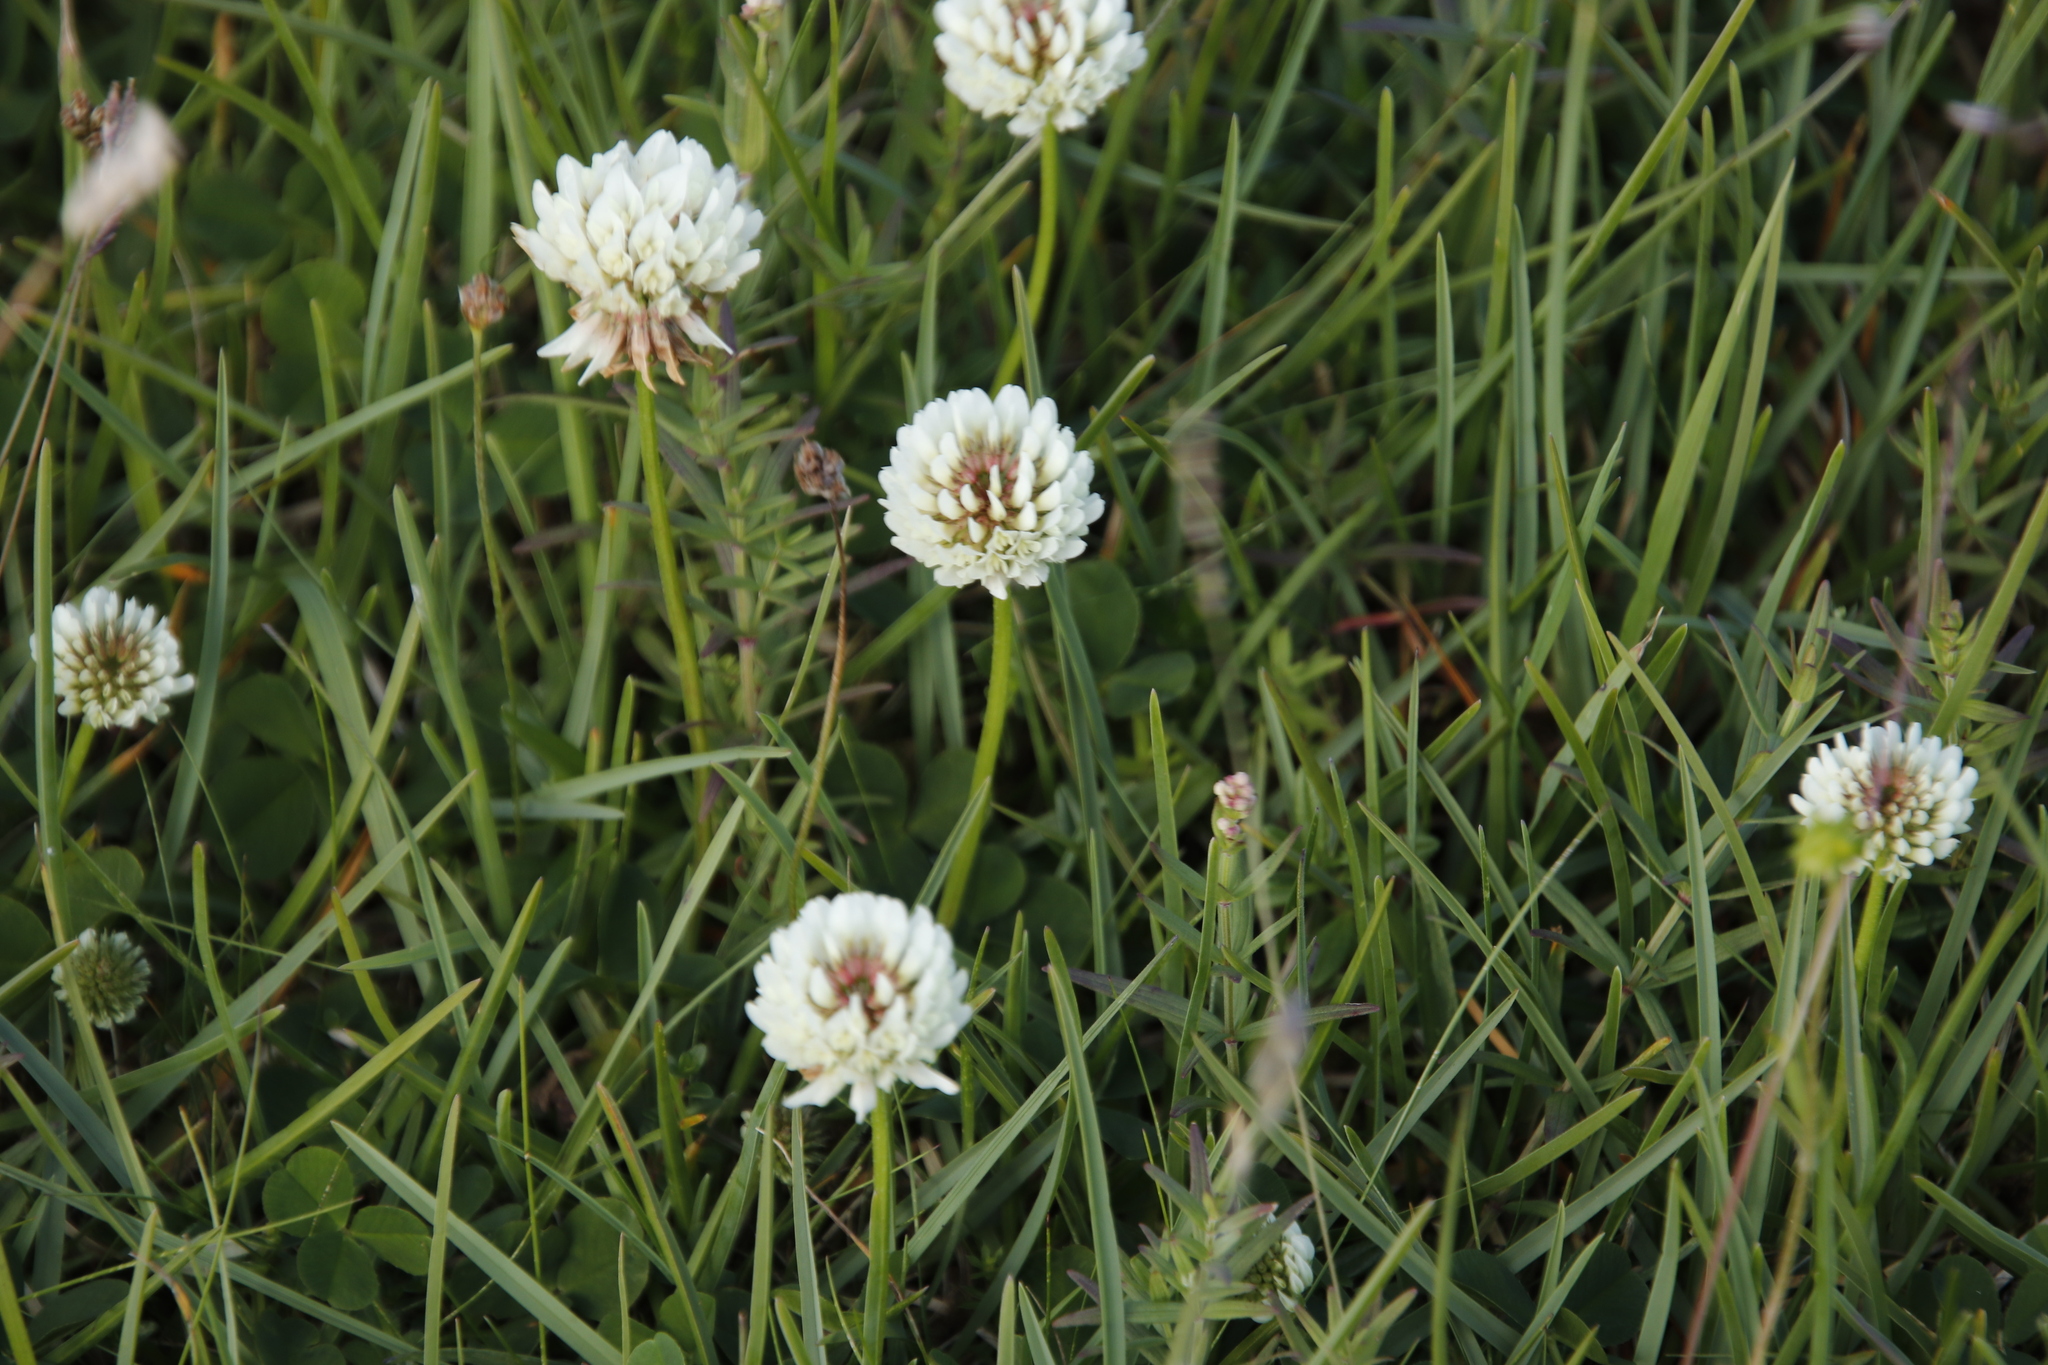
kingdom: Plantae
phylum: Tracheophyta
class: Magnoliopsida
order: Fabales
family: Fabaceae
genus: Trifolium
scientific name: Trifolium repens
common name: White clover
